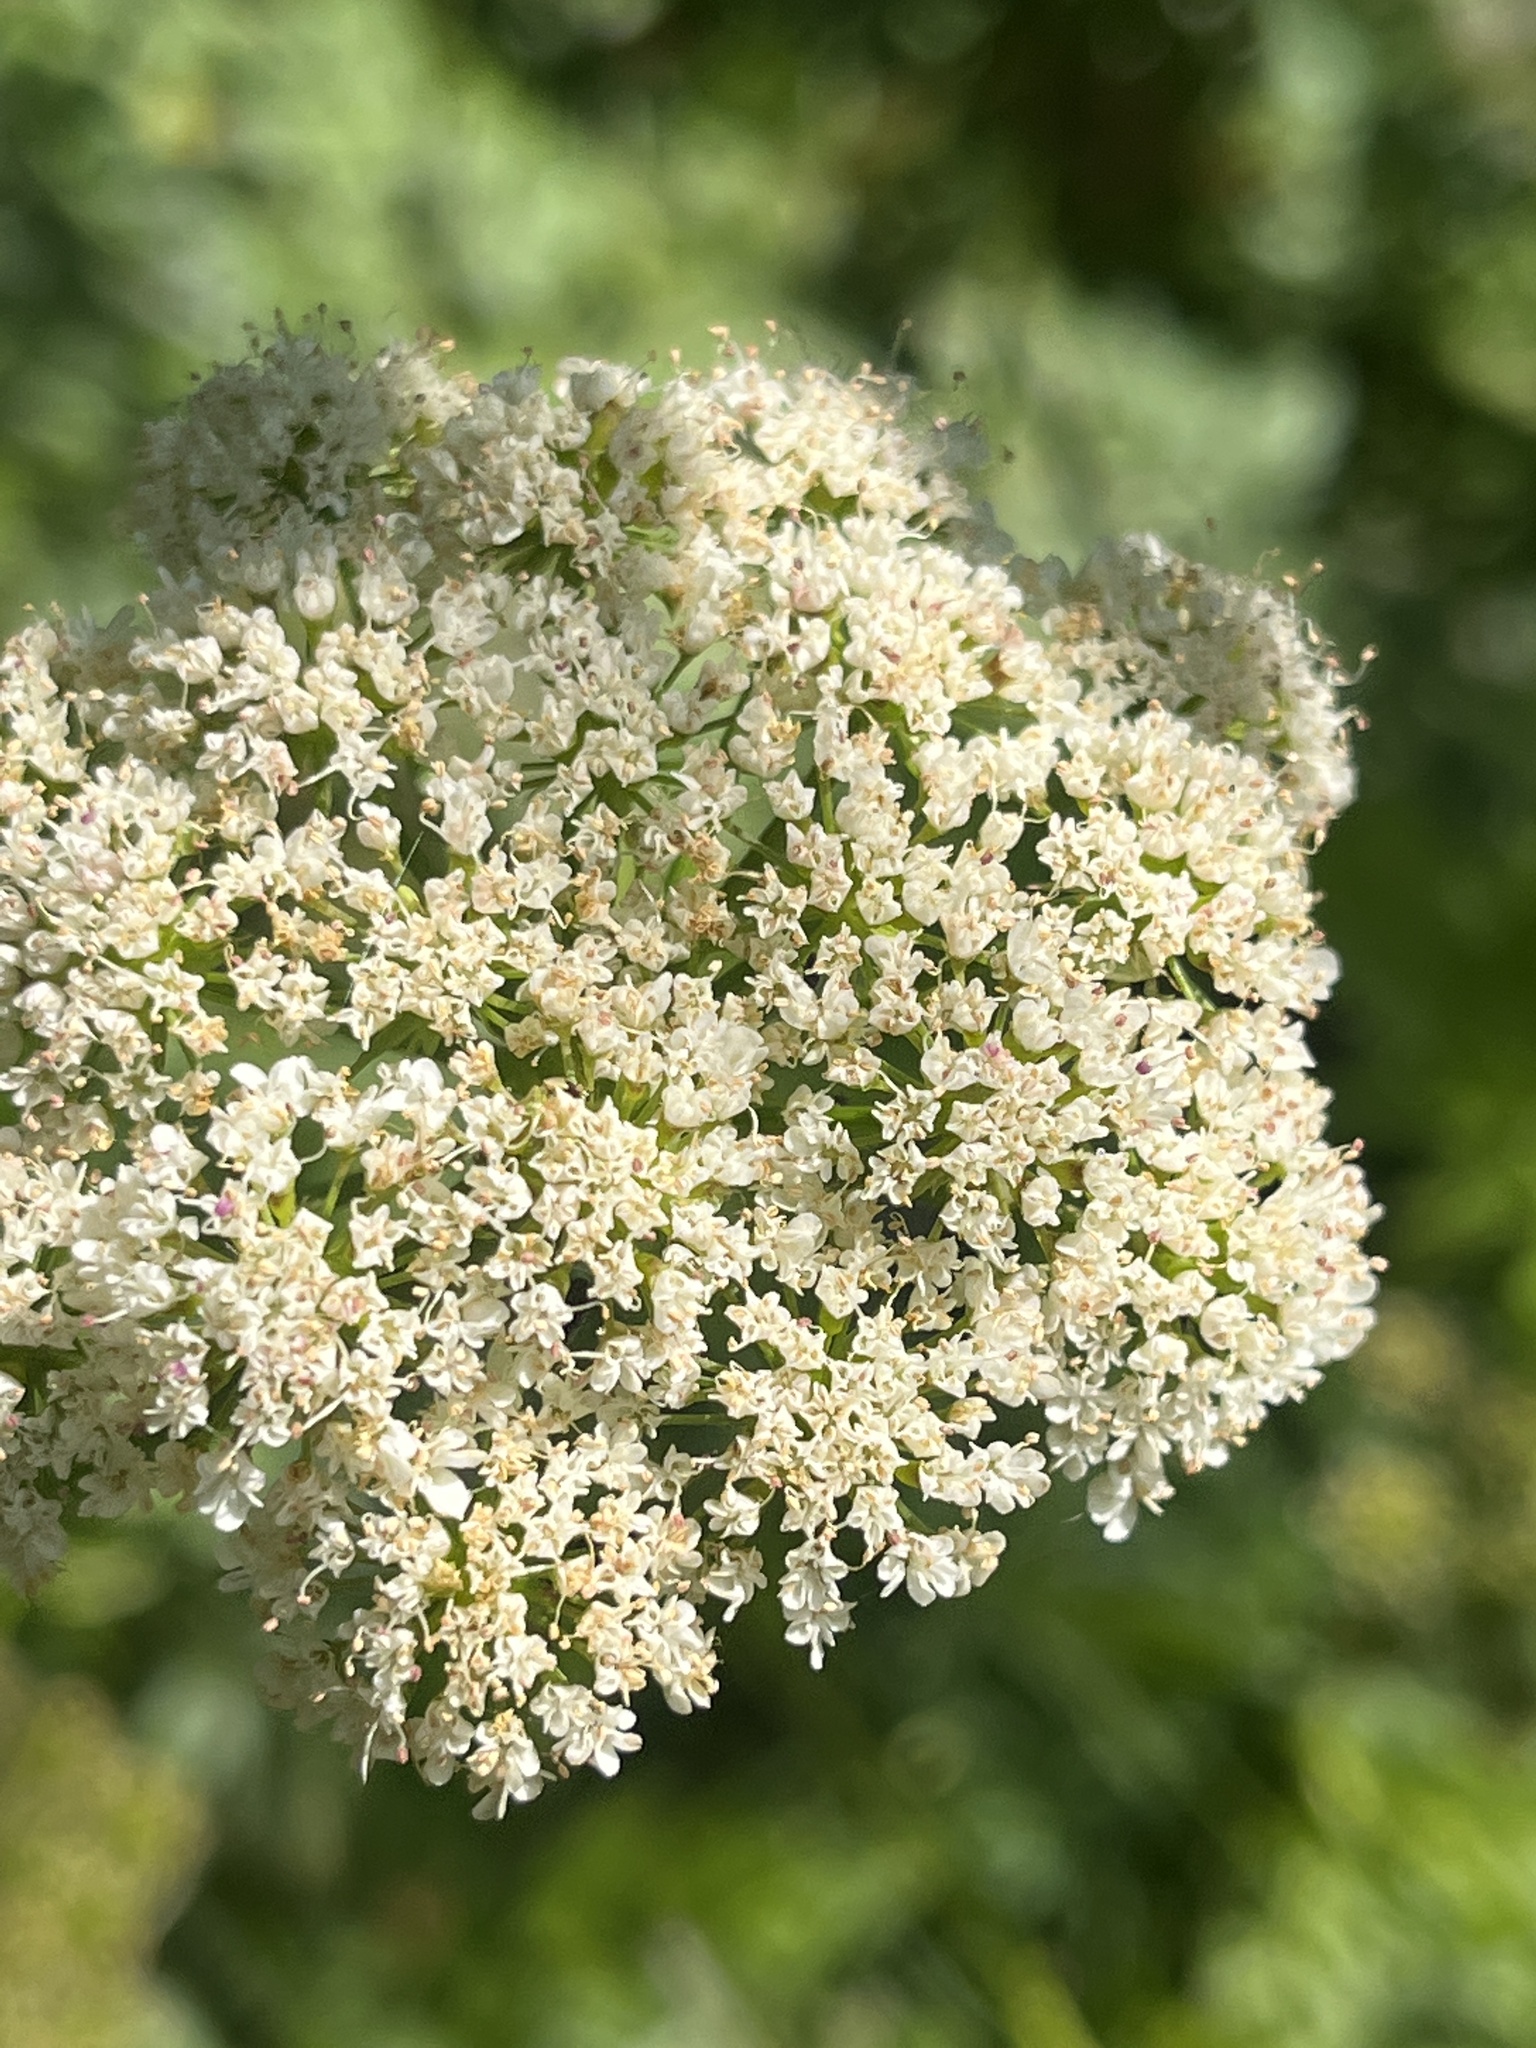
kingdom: Plantae
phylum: Tracheophyta
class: Magnoliopsida
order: Apiales
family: Apiaceae
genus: Oenanthe
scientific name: Oenanthe sarmentosa
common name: American water-parsley
